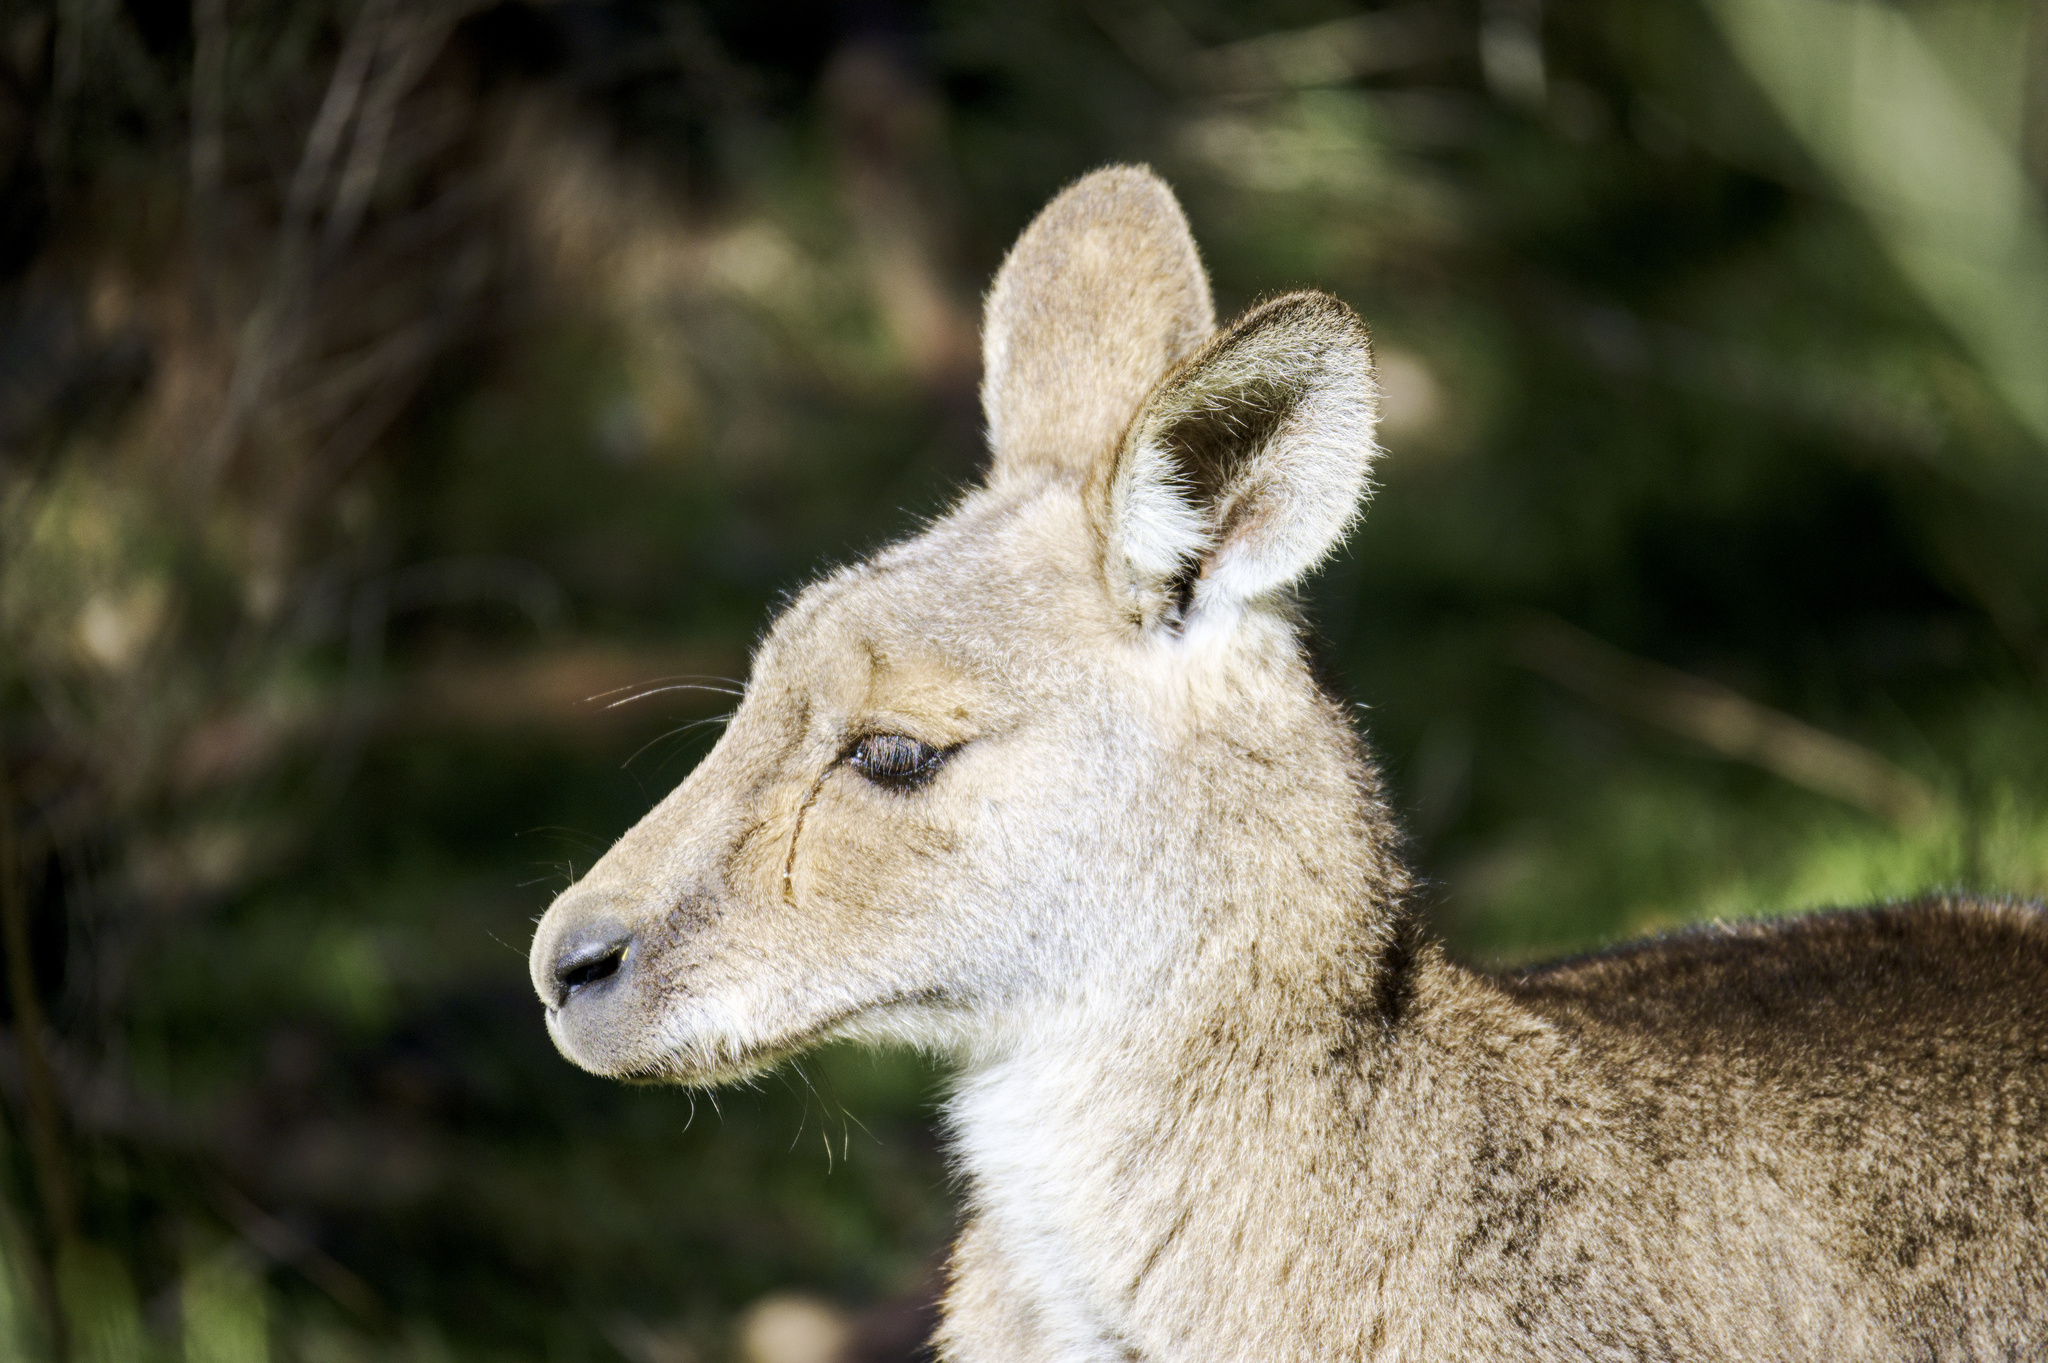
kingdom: Animalia
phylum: Chordata
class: Mammalia
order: Diprotodontia
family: Macropodidae
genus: Macropus
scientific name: Macropus giganteus
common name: Eastern grey kangaroo
